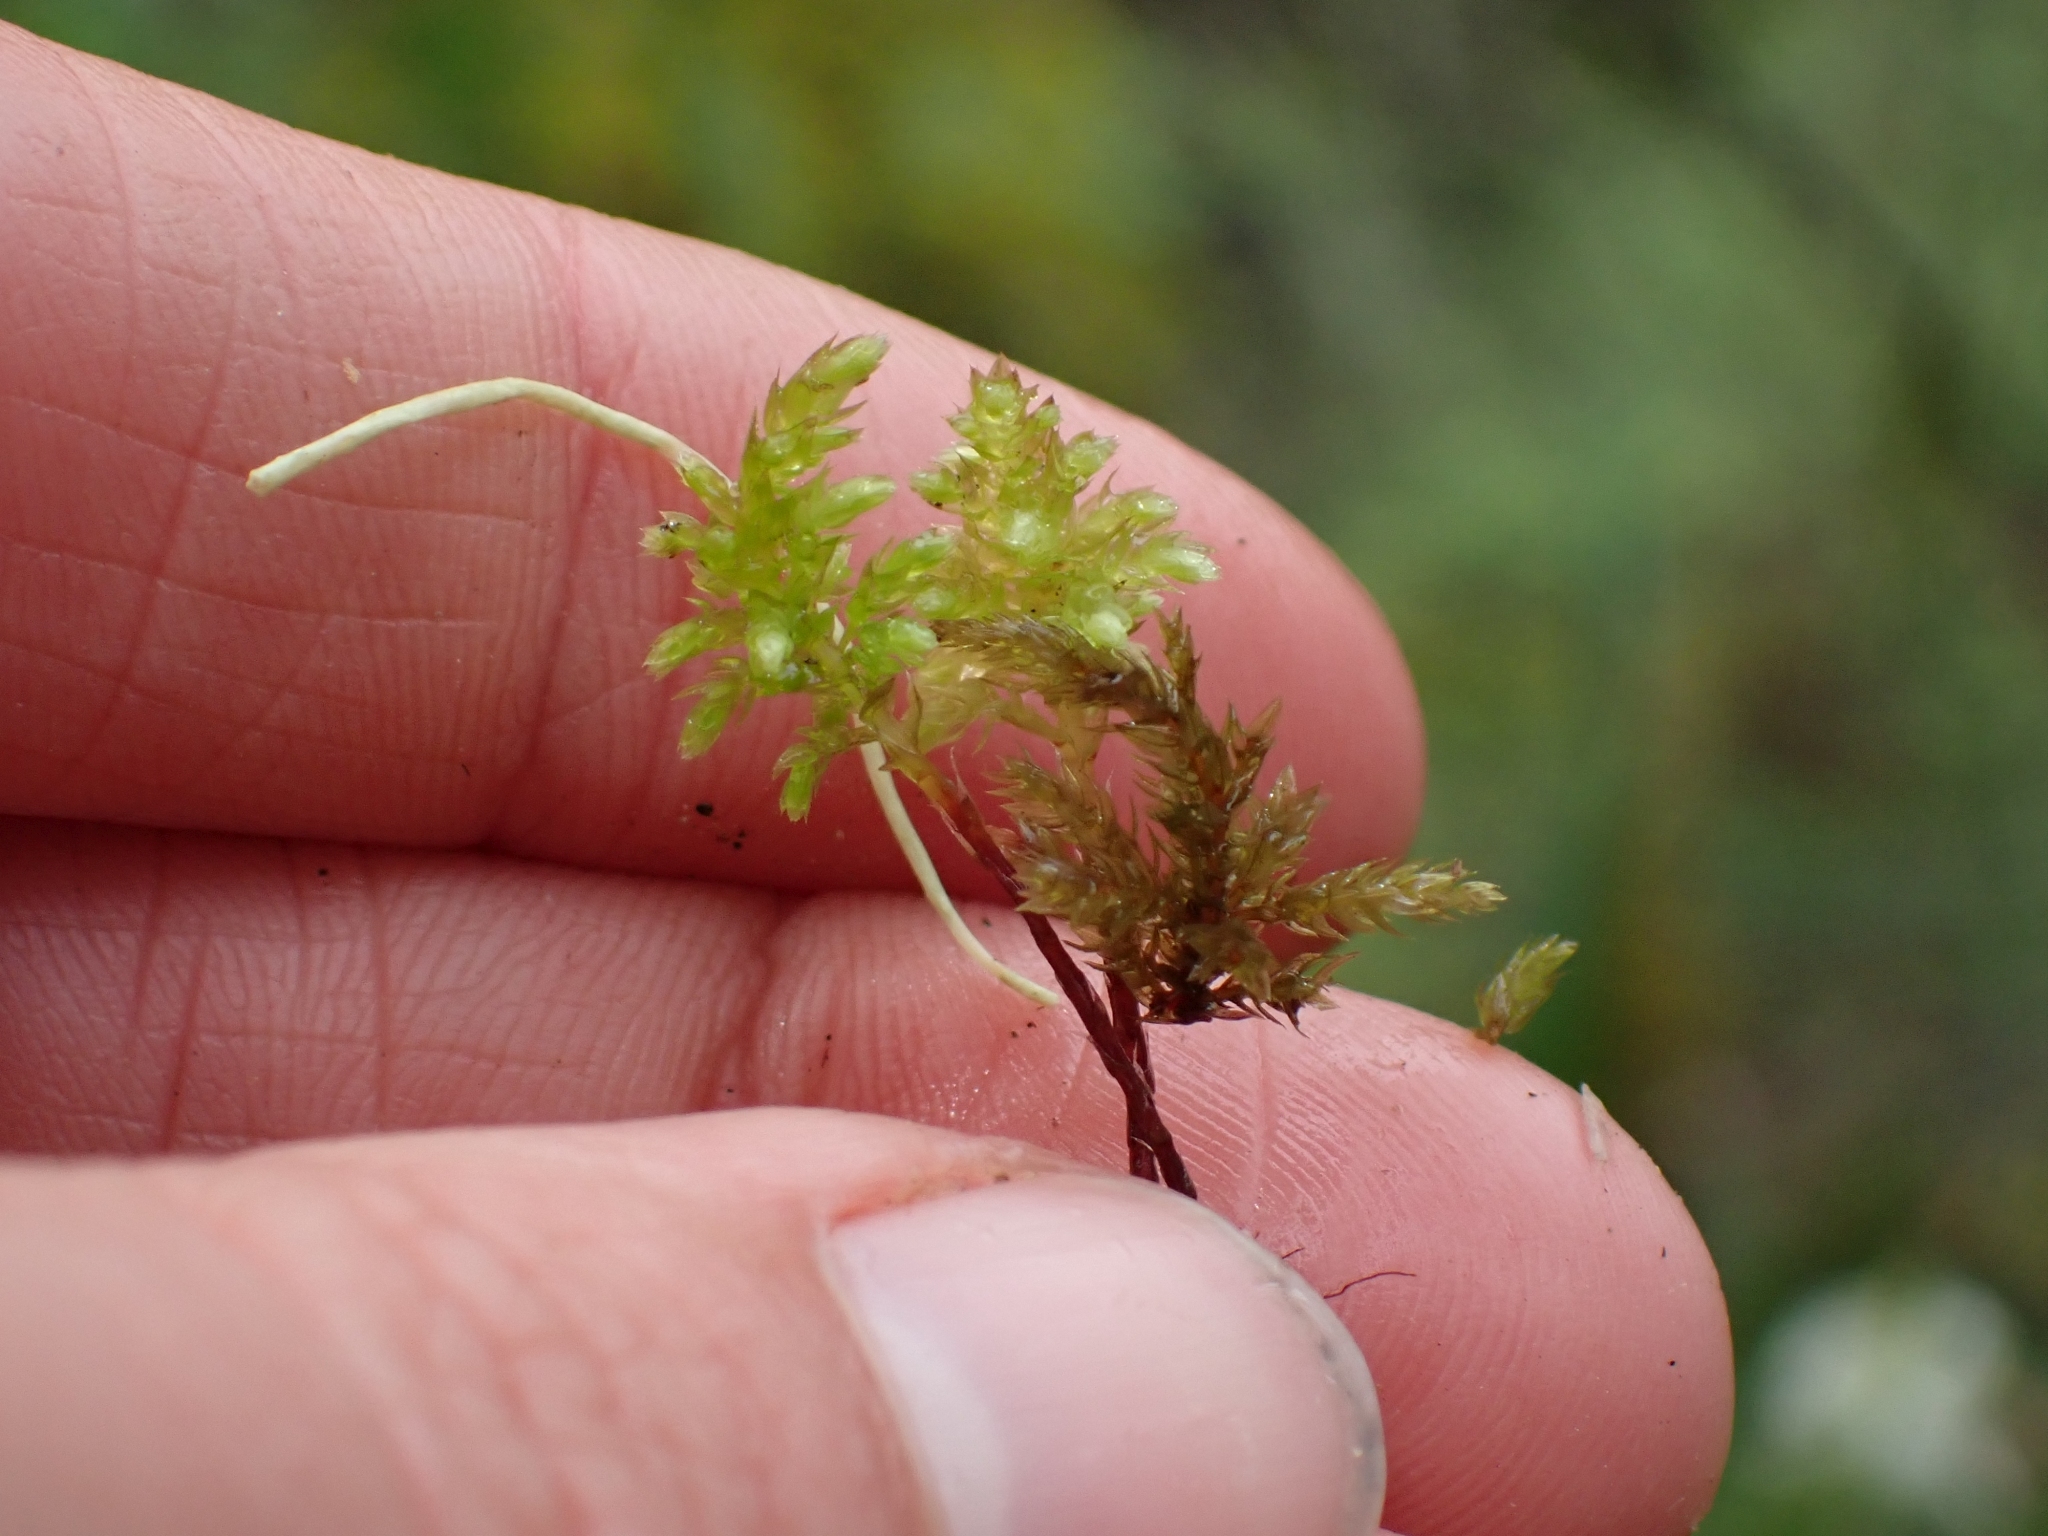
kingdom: Plantae
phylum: Bryophyta
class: Bryopsida
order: Bryales
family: Mniaceae
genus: Leucolepis
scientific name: Leucolepis acanthoneura
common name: Leucolepis umbrella moss
